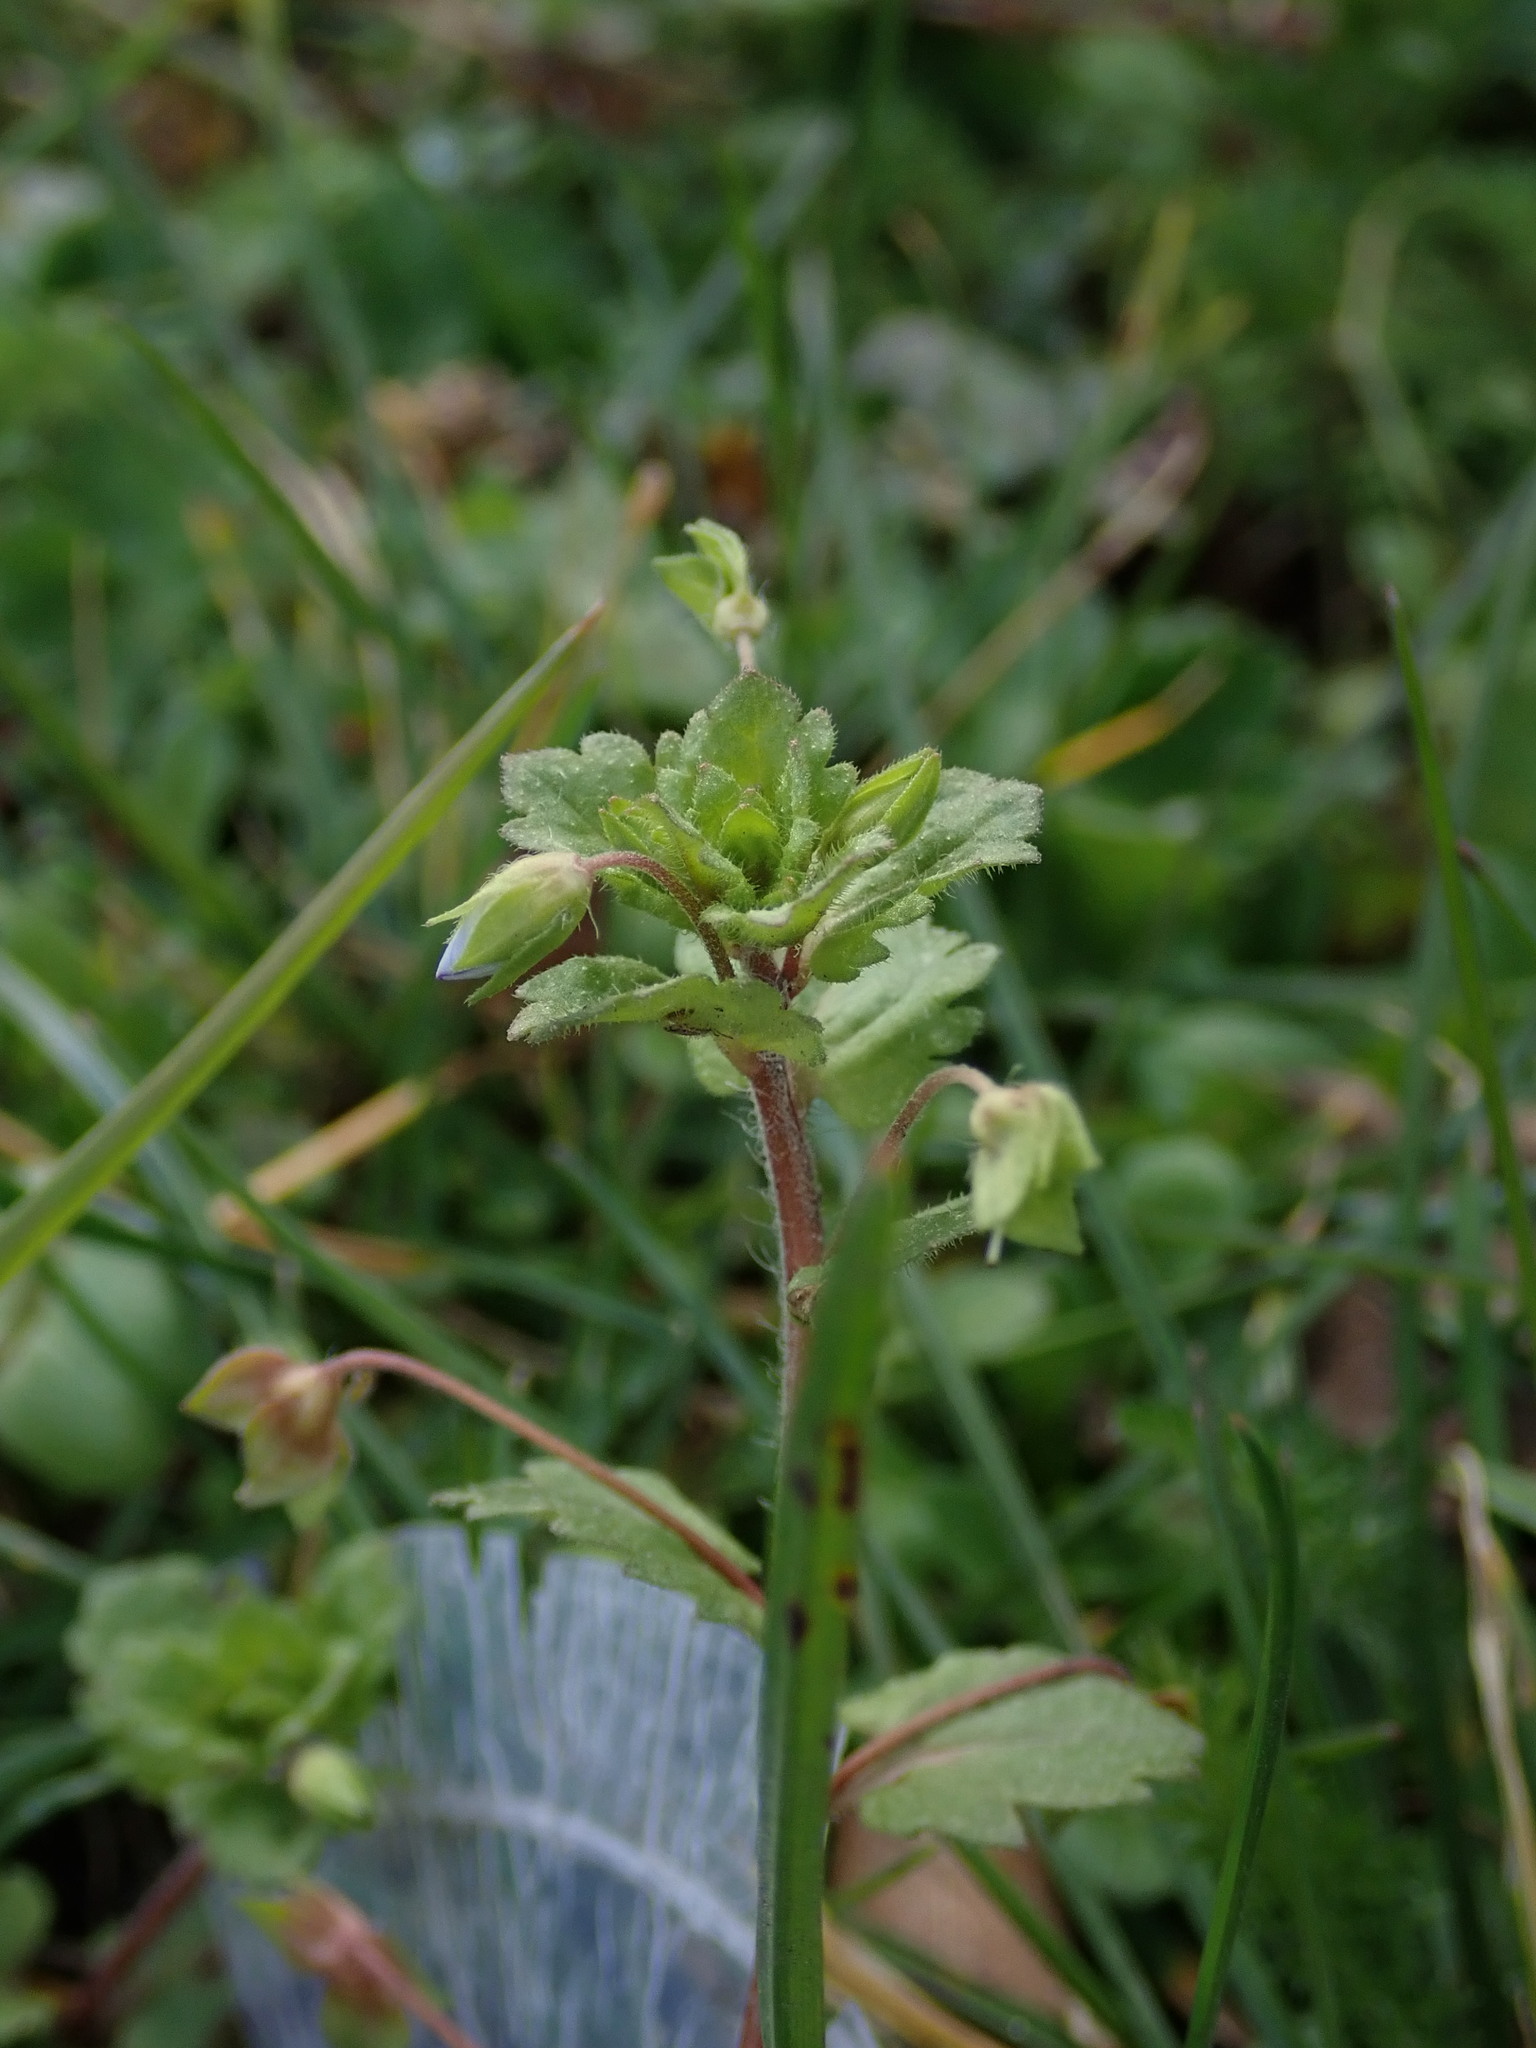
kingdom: Plantae
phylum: Tracheophyta
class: Magnoliopsida
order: Lamiales
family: Plantaginaceae
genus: Veronica
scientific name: Veronica persica
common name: Common field-speedwell
